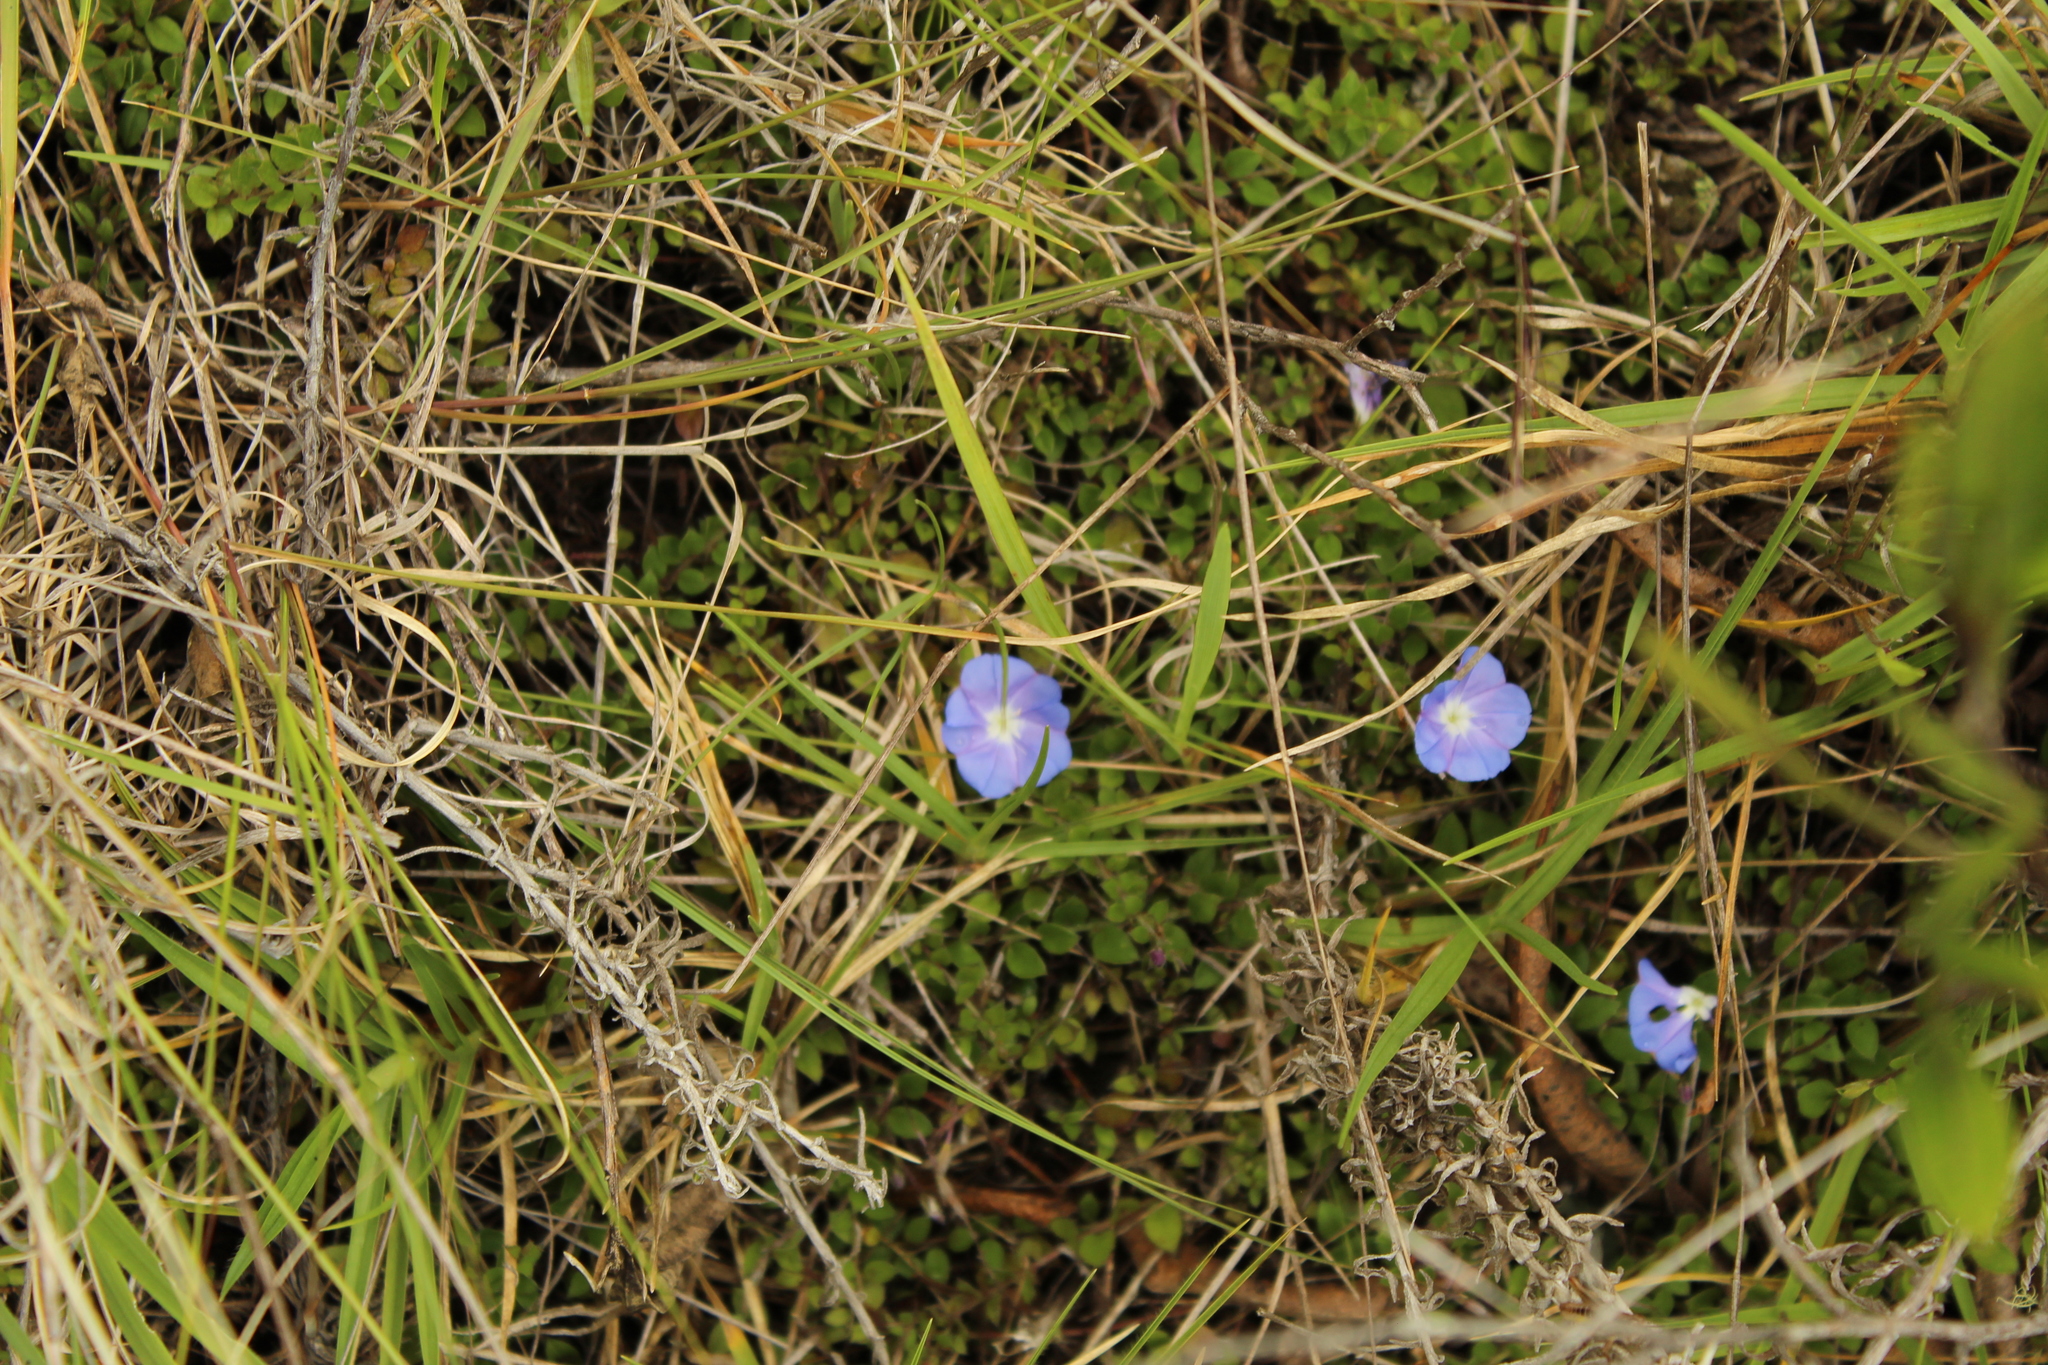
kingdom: Plantae
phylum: Tracheophyta
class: Magnoliopsida
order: Solanales
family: Convolvulaceae
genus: Evolvulus
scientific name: Evolvulus bogotensis
